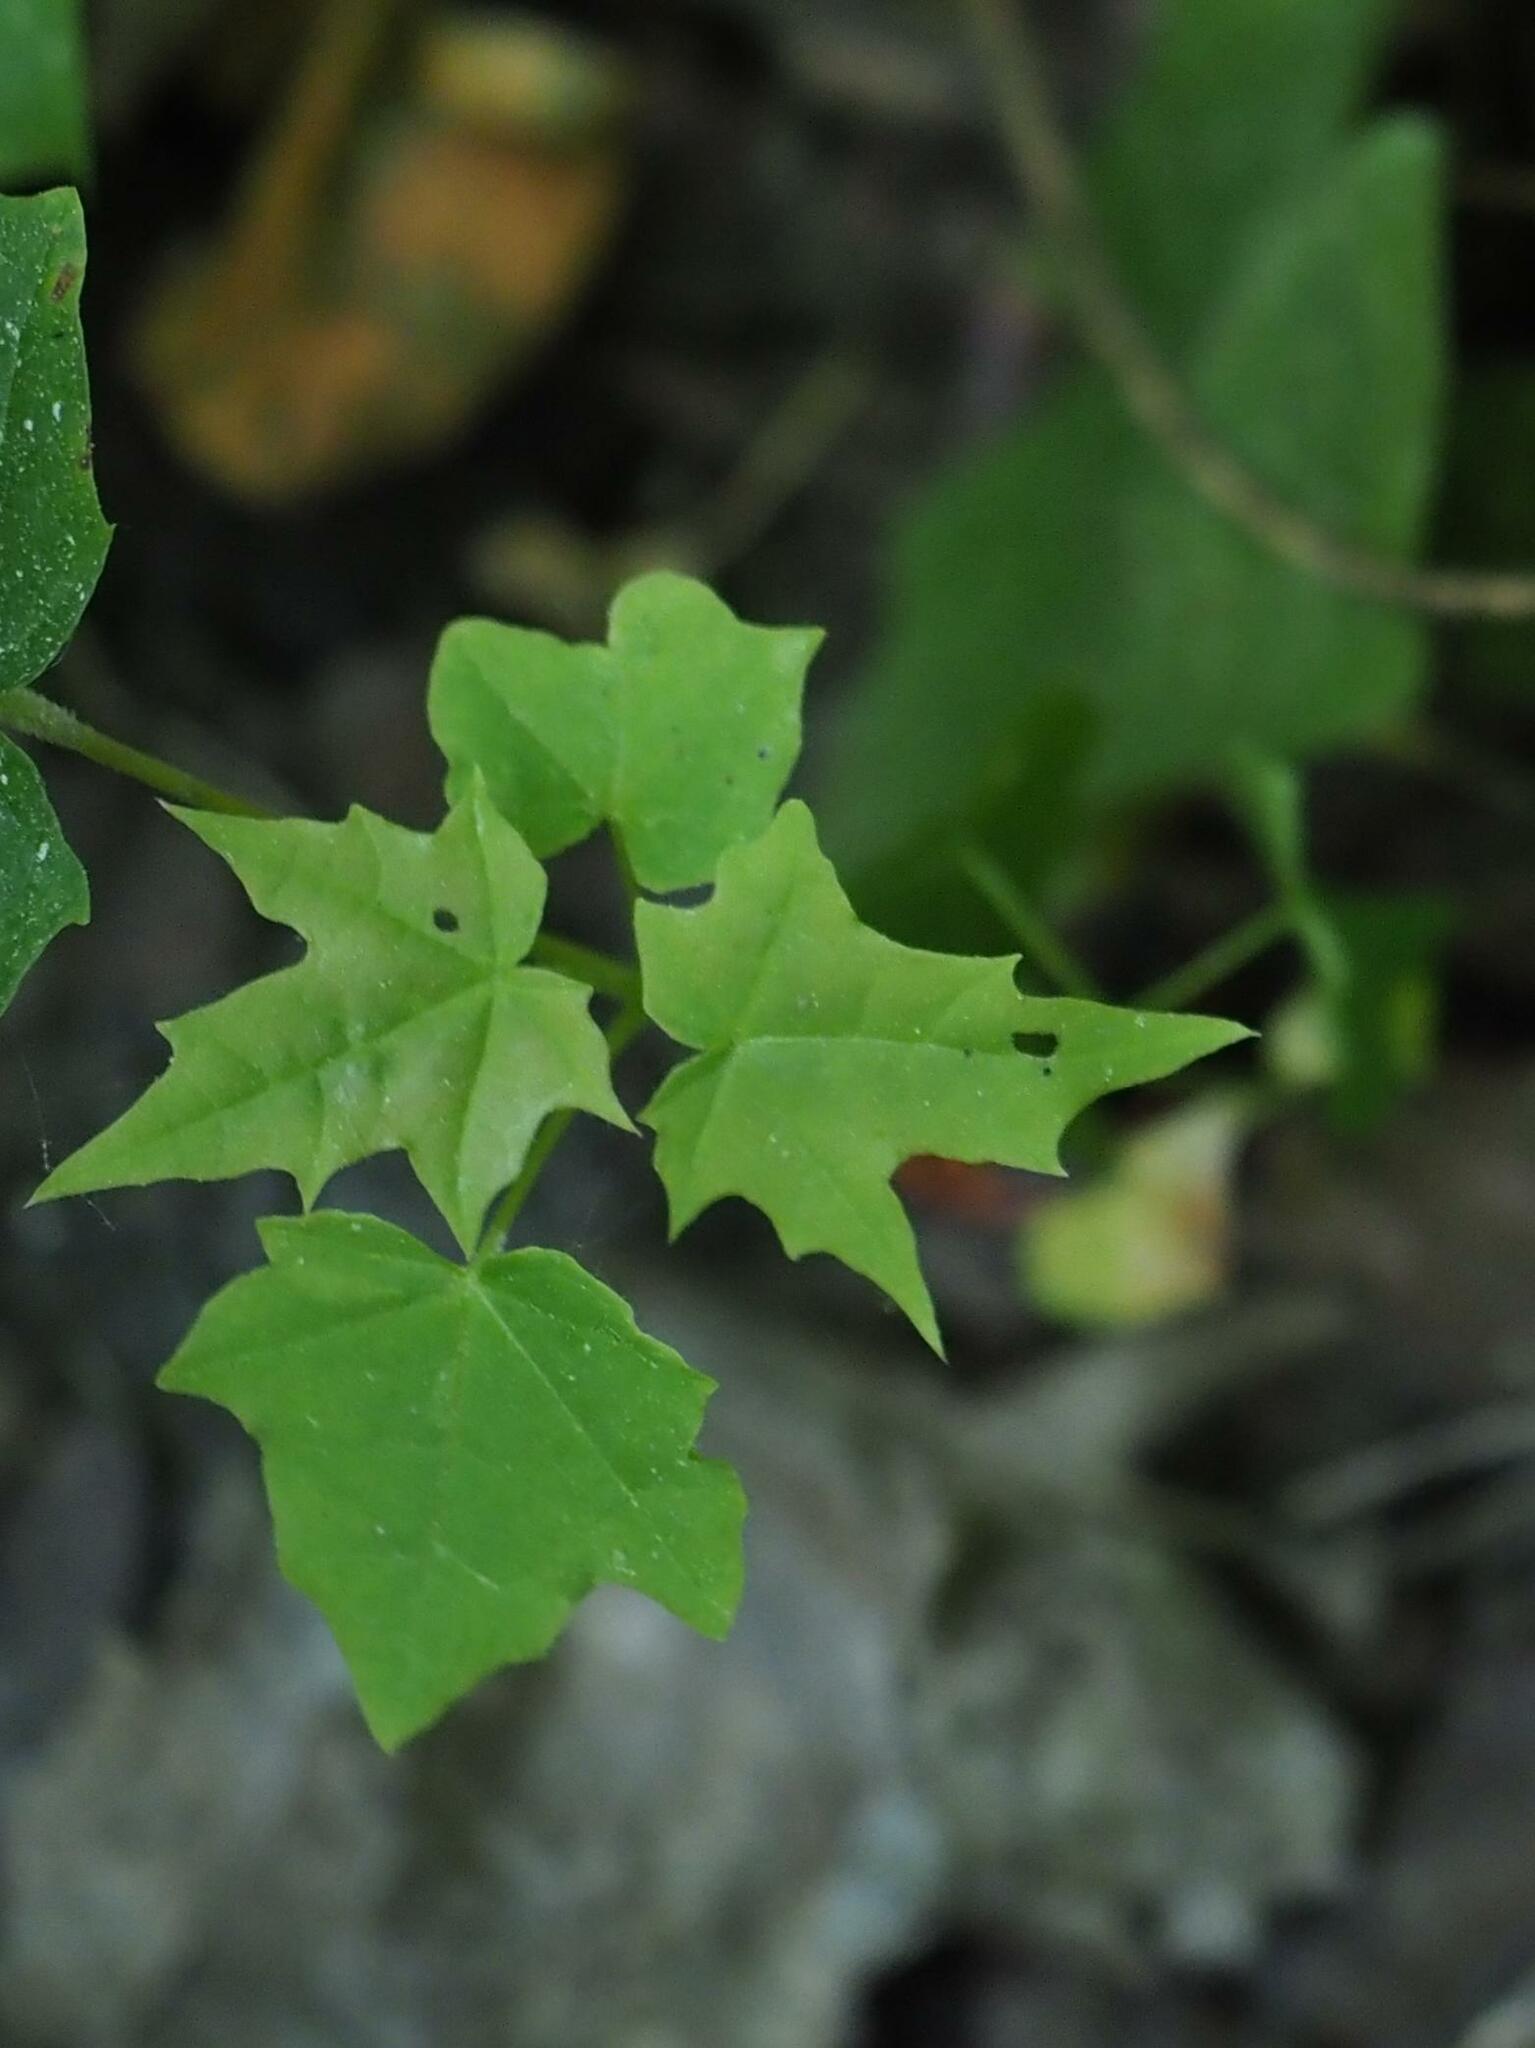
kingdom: Plantae
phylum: Tracheophyta
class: Magnoliopsida
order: Sapindales
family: Sapindaceae
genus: Acer
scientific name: Acer platanoides
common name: Norway maple
